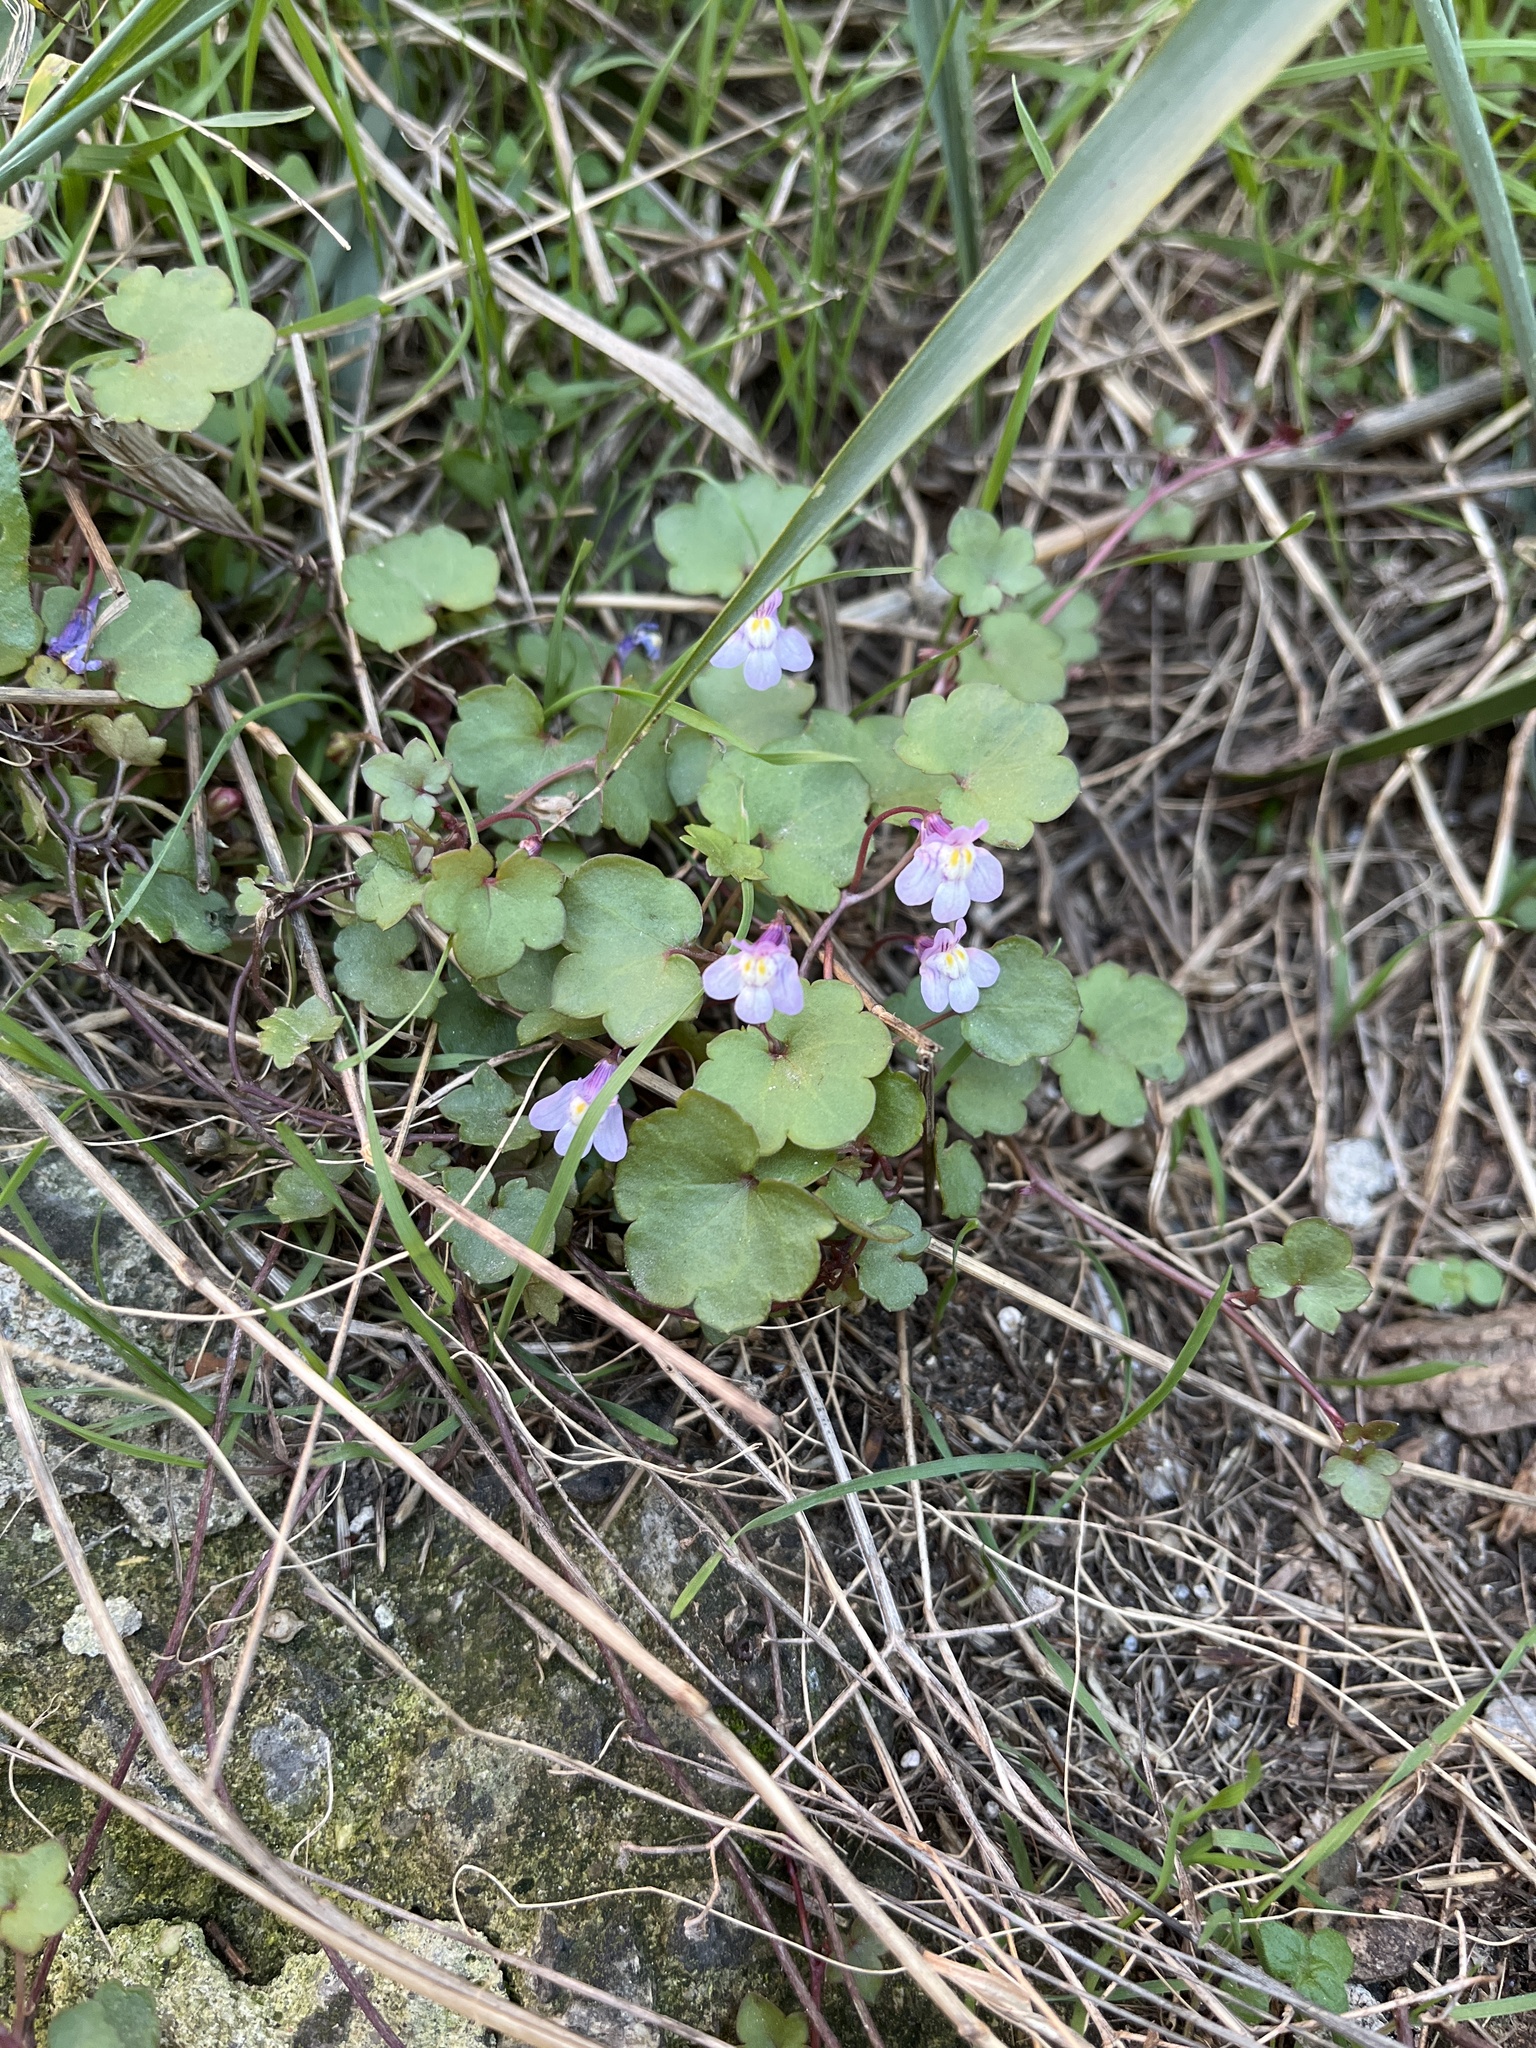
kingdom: Plantae
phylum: Tracheophyta
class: Magnoliopsida
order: Lamiales
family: Plantaginaceae
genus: Cymbalaria
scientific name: Cymbalaria muralis
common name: Ivy-leaved toadflax
